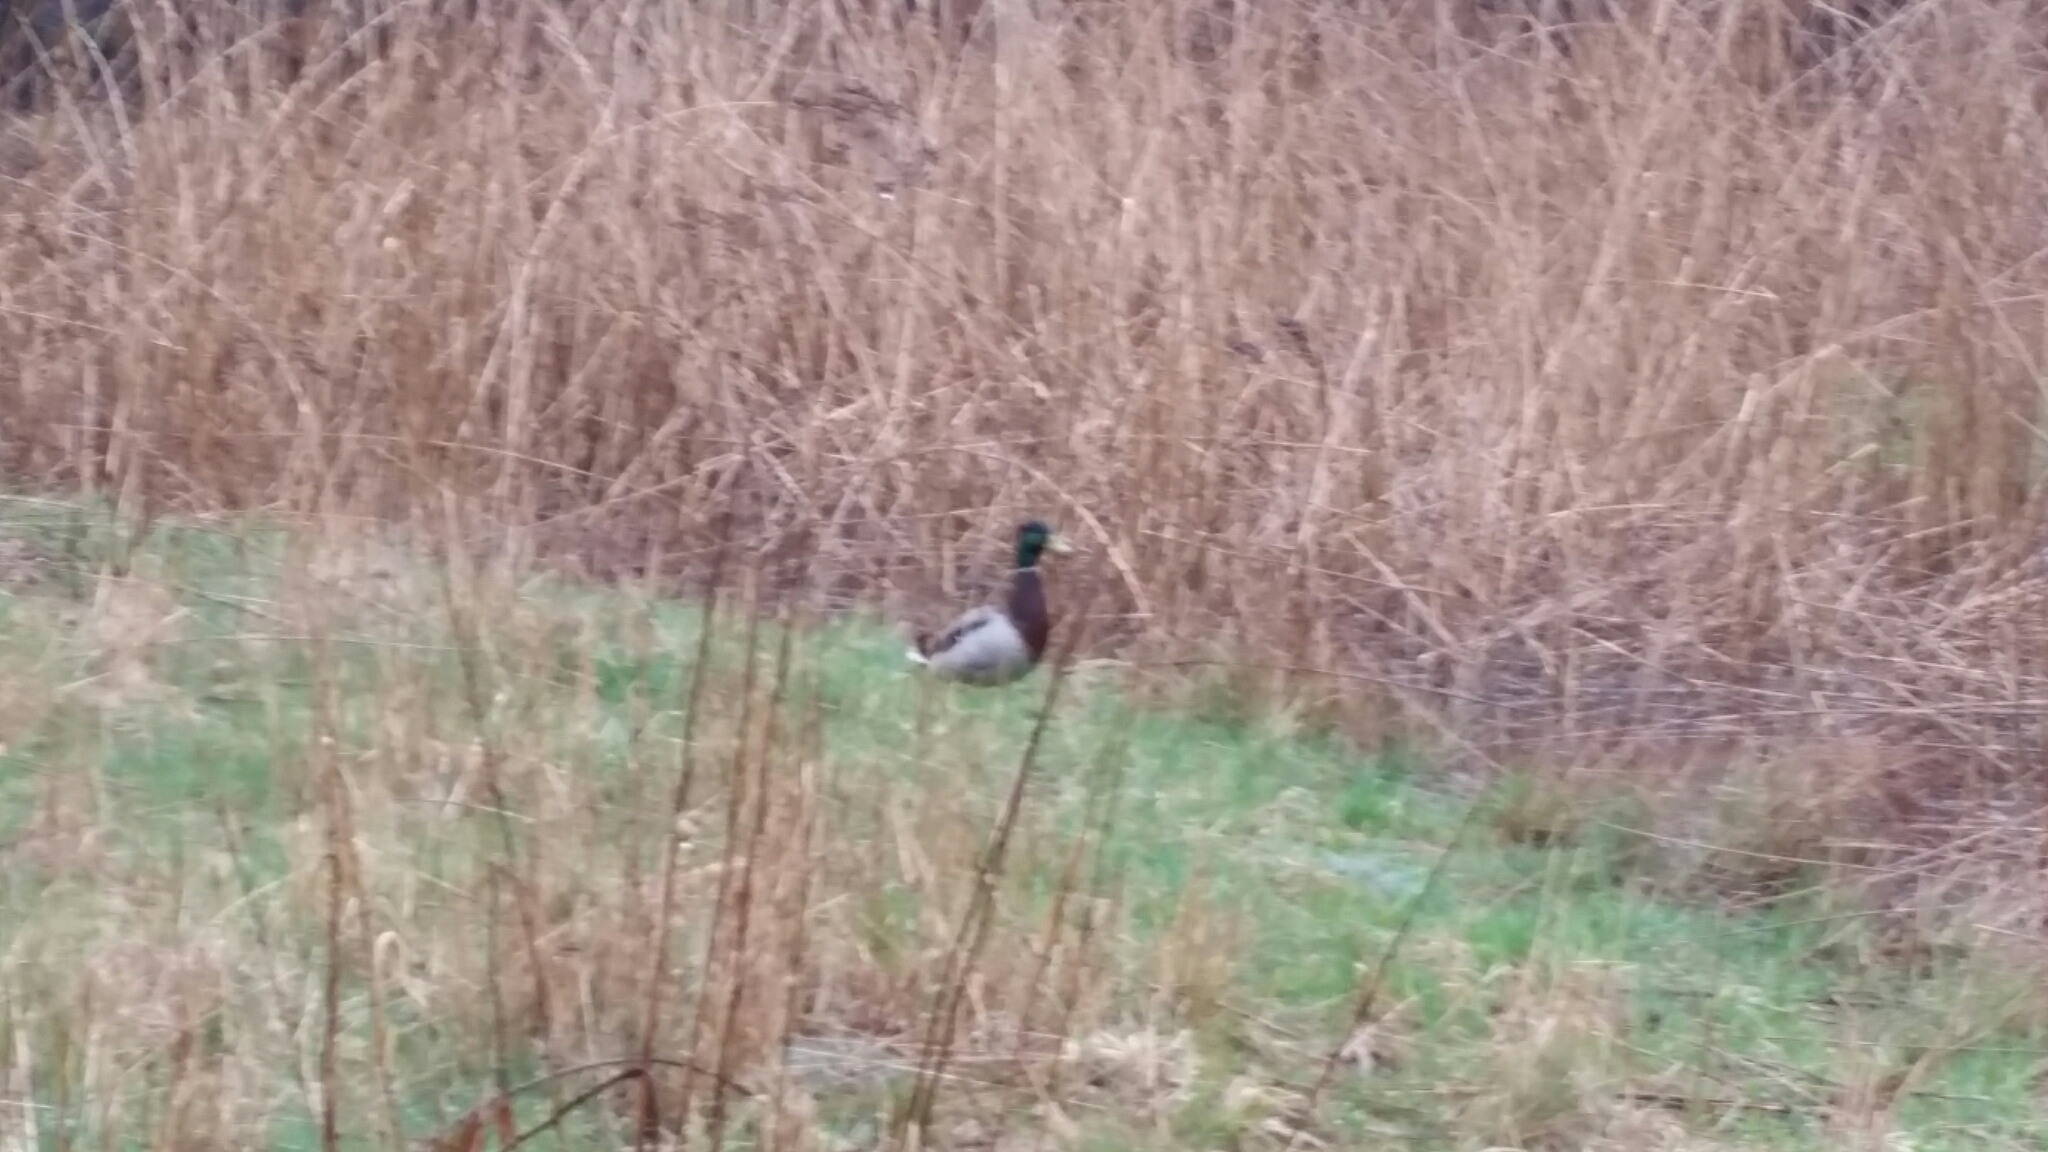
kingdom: Animalia
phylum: Chordata
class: Aves
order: Anseriformes
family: Anatidae
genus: Anas
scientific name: Anas platyrhynchos
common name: Mallard
